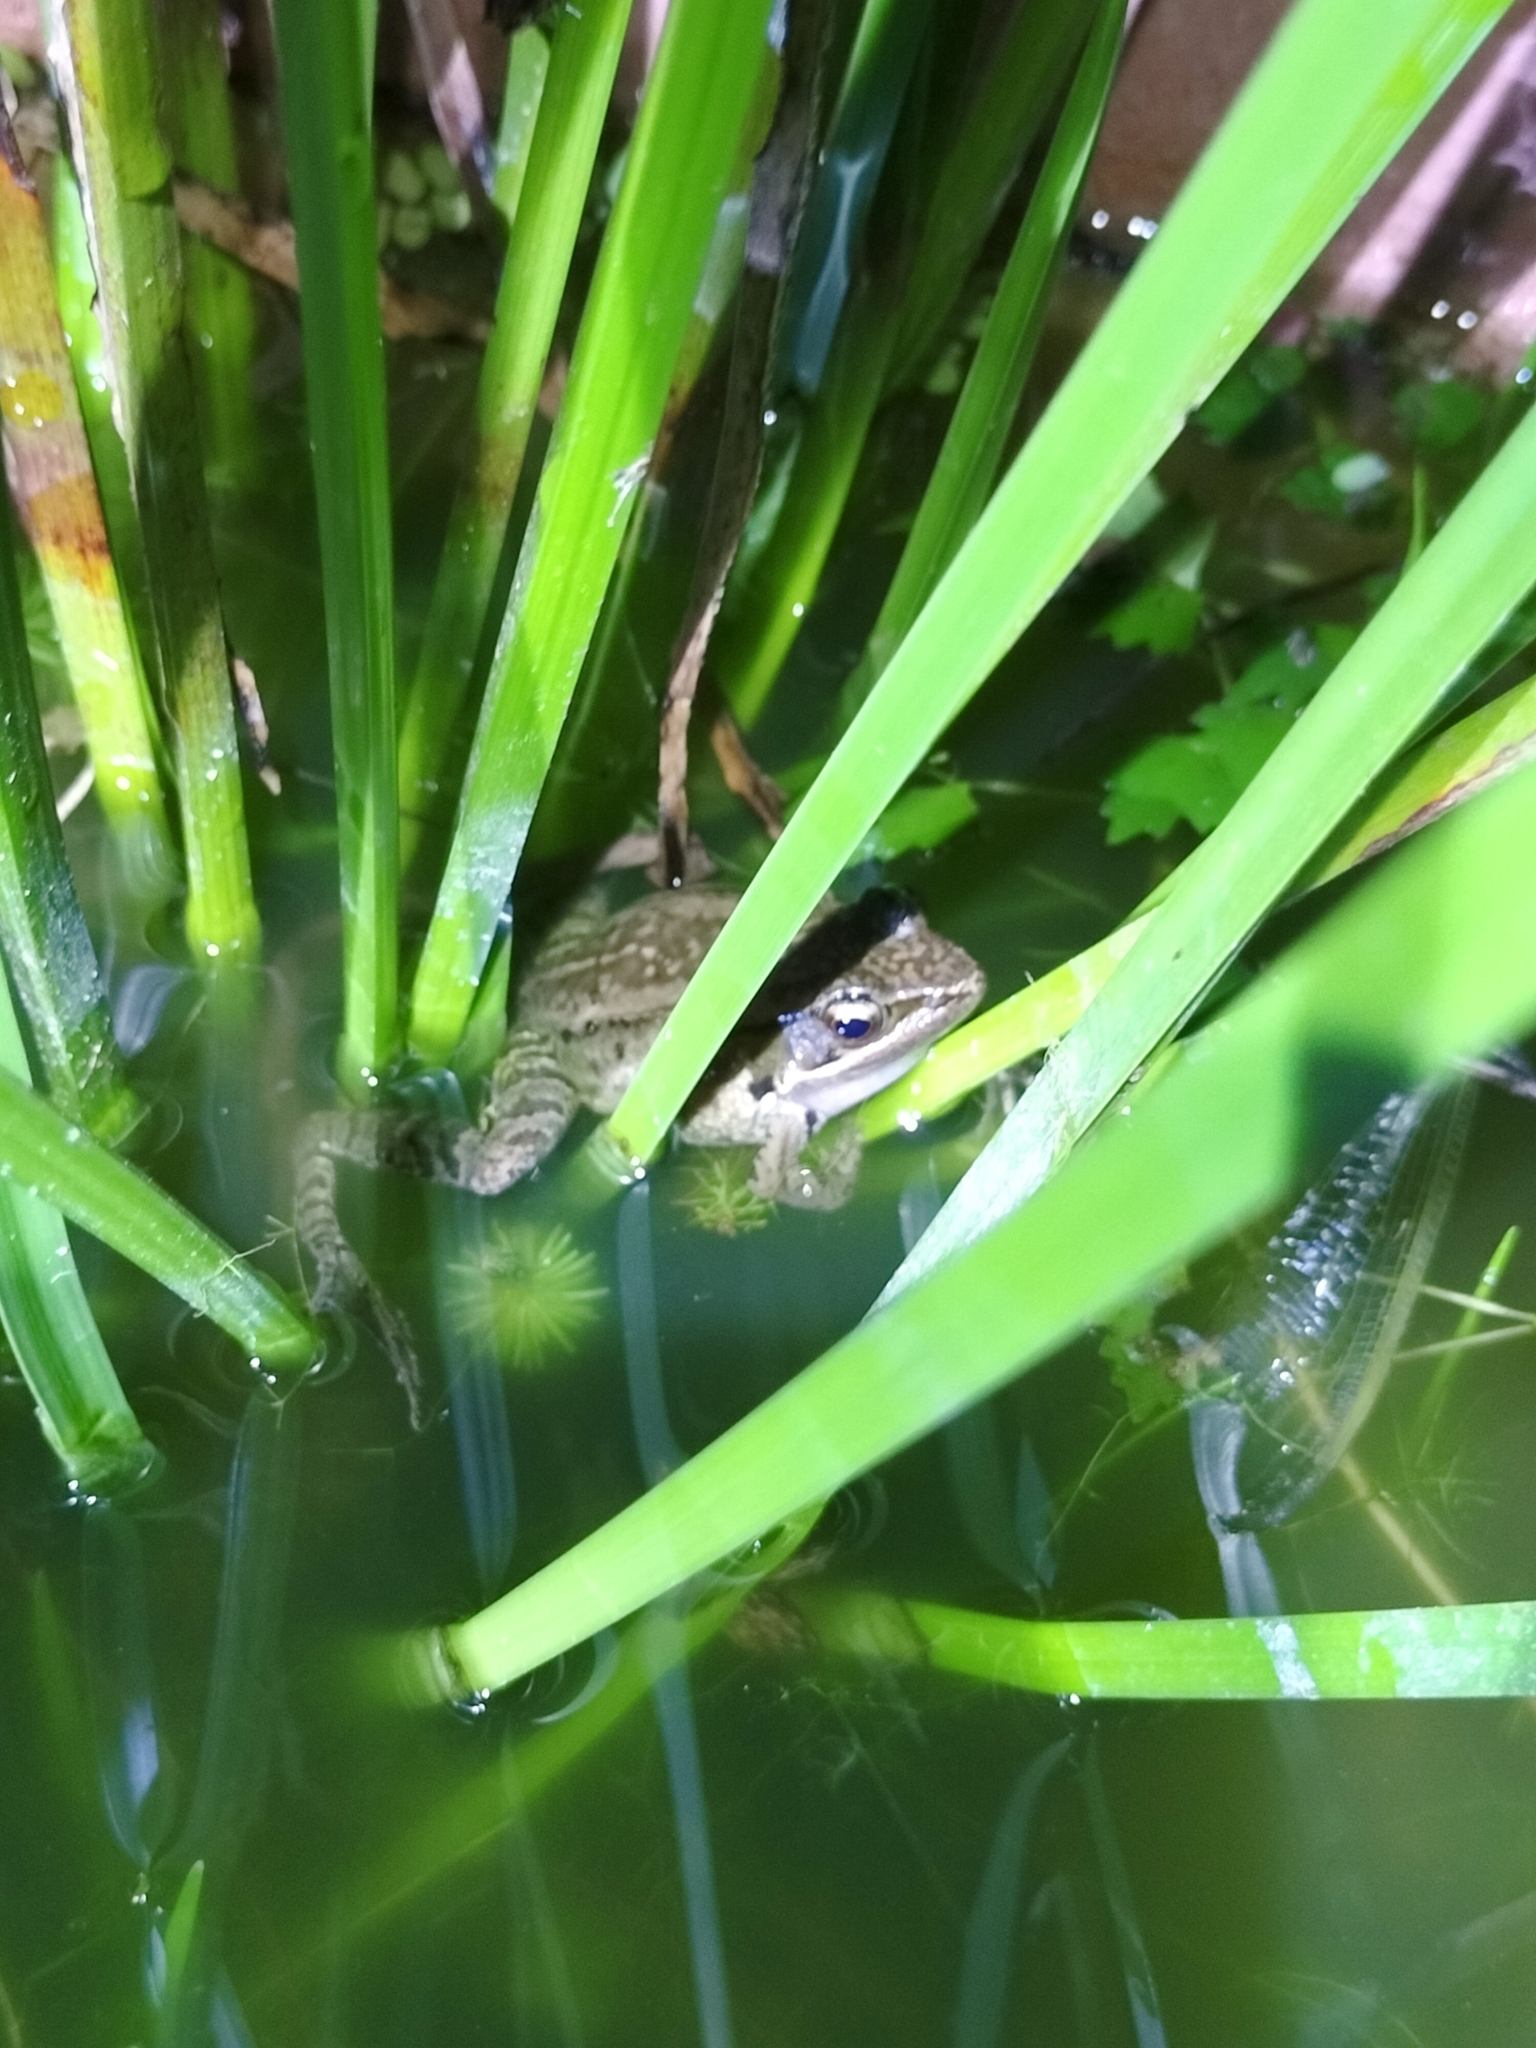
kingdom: Animalia
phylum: Chordata
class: Amphibia
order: Anura
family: Ranidae
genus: Nidirana
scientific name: Nidirana adenopleura
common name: Olive frog
